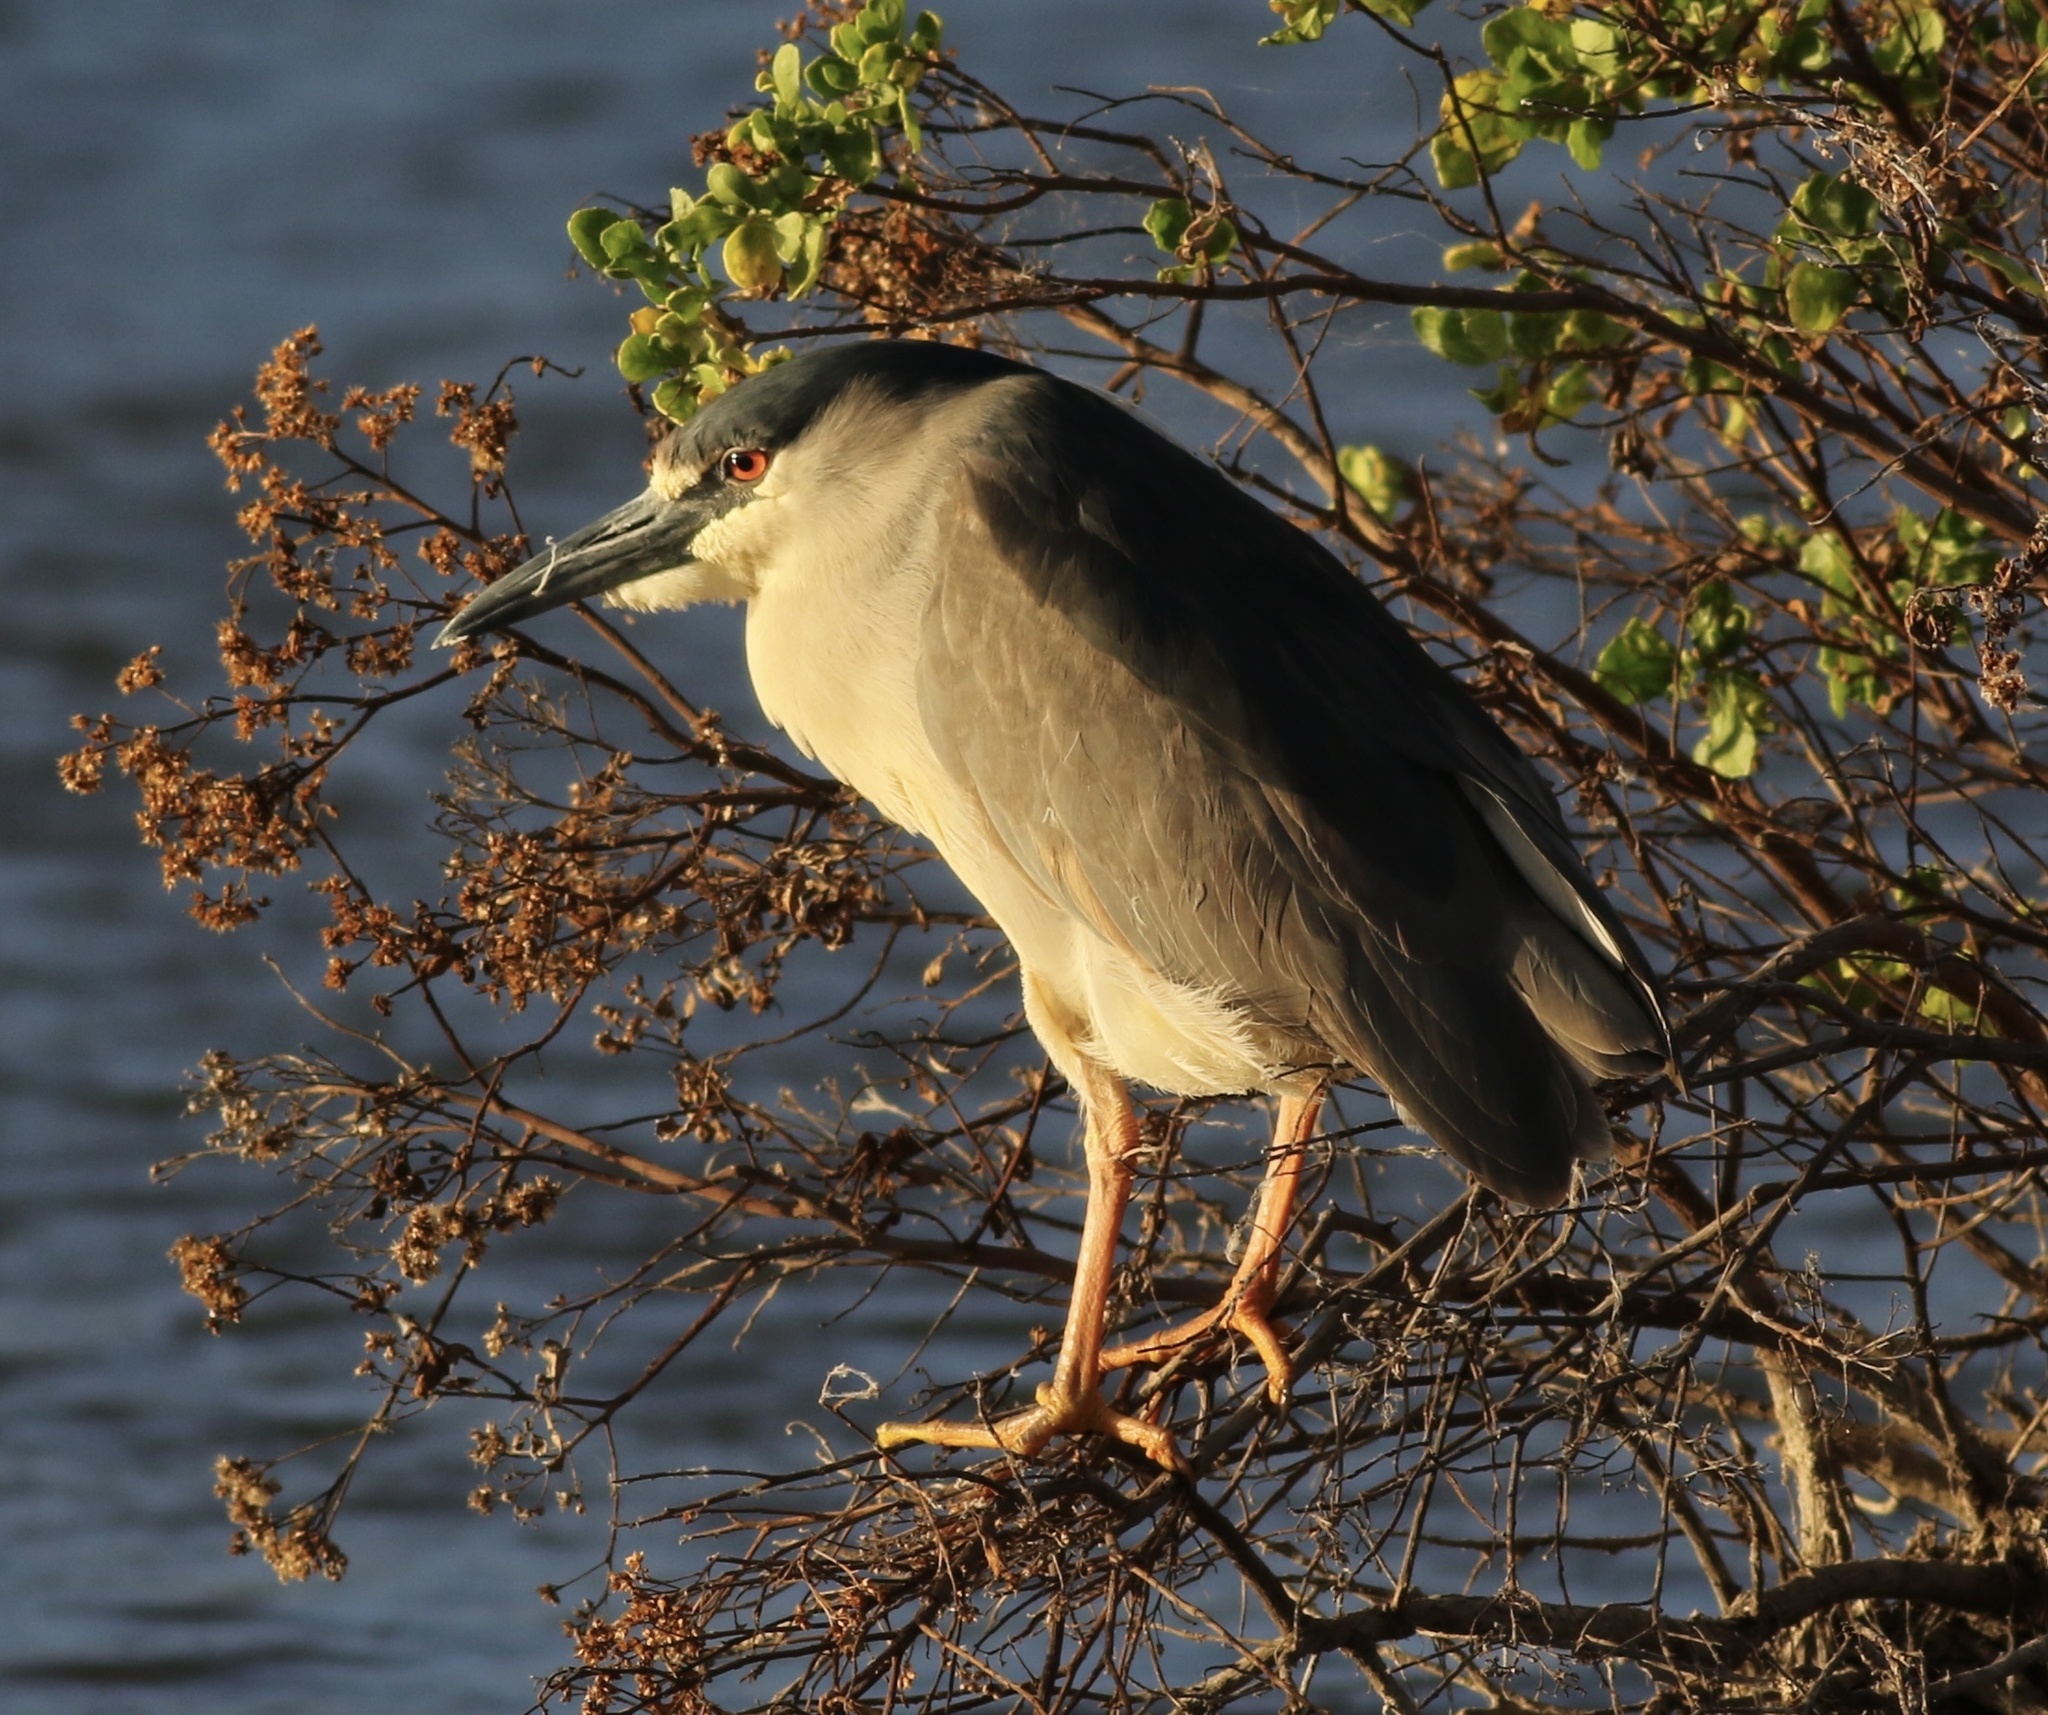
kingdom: Animalia
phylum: Chordata
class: Aves
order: Pelecaniformes
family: Ardeidae
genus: Nycticorax
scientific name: Nycticorax nycticorax
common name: Black-crowned night heron
